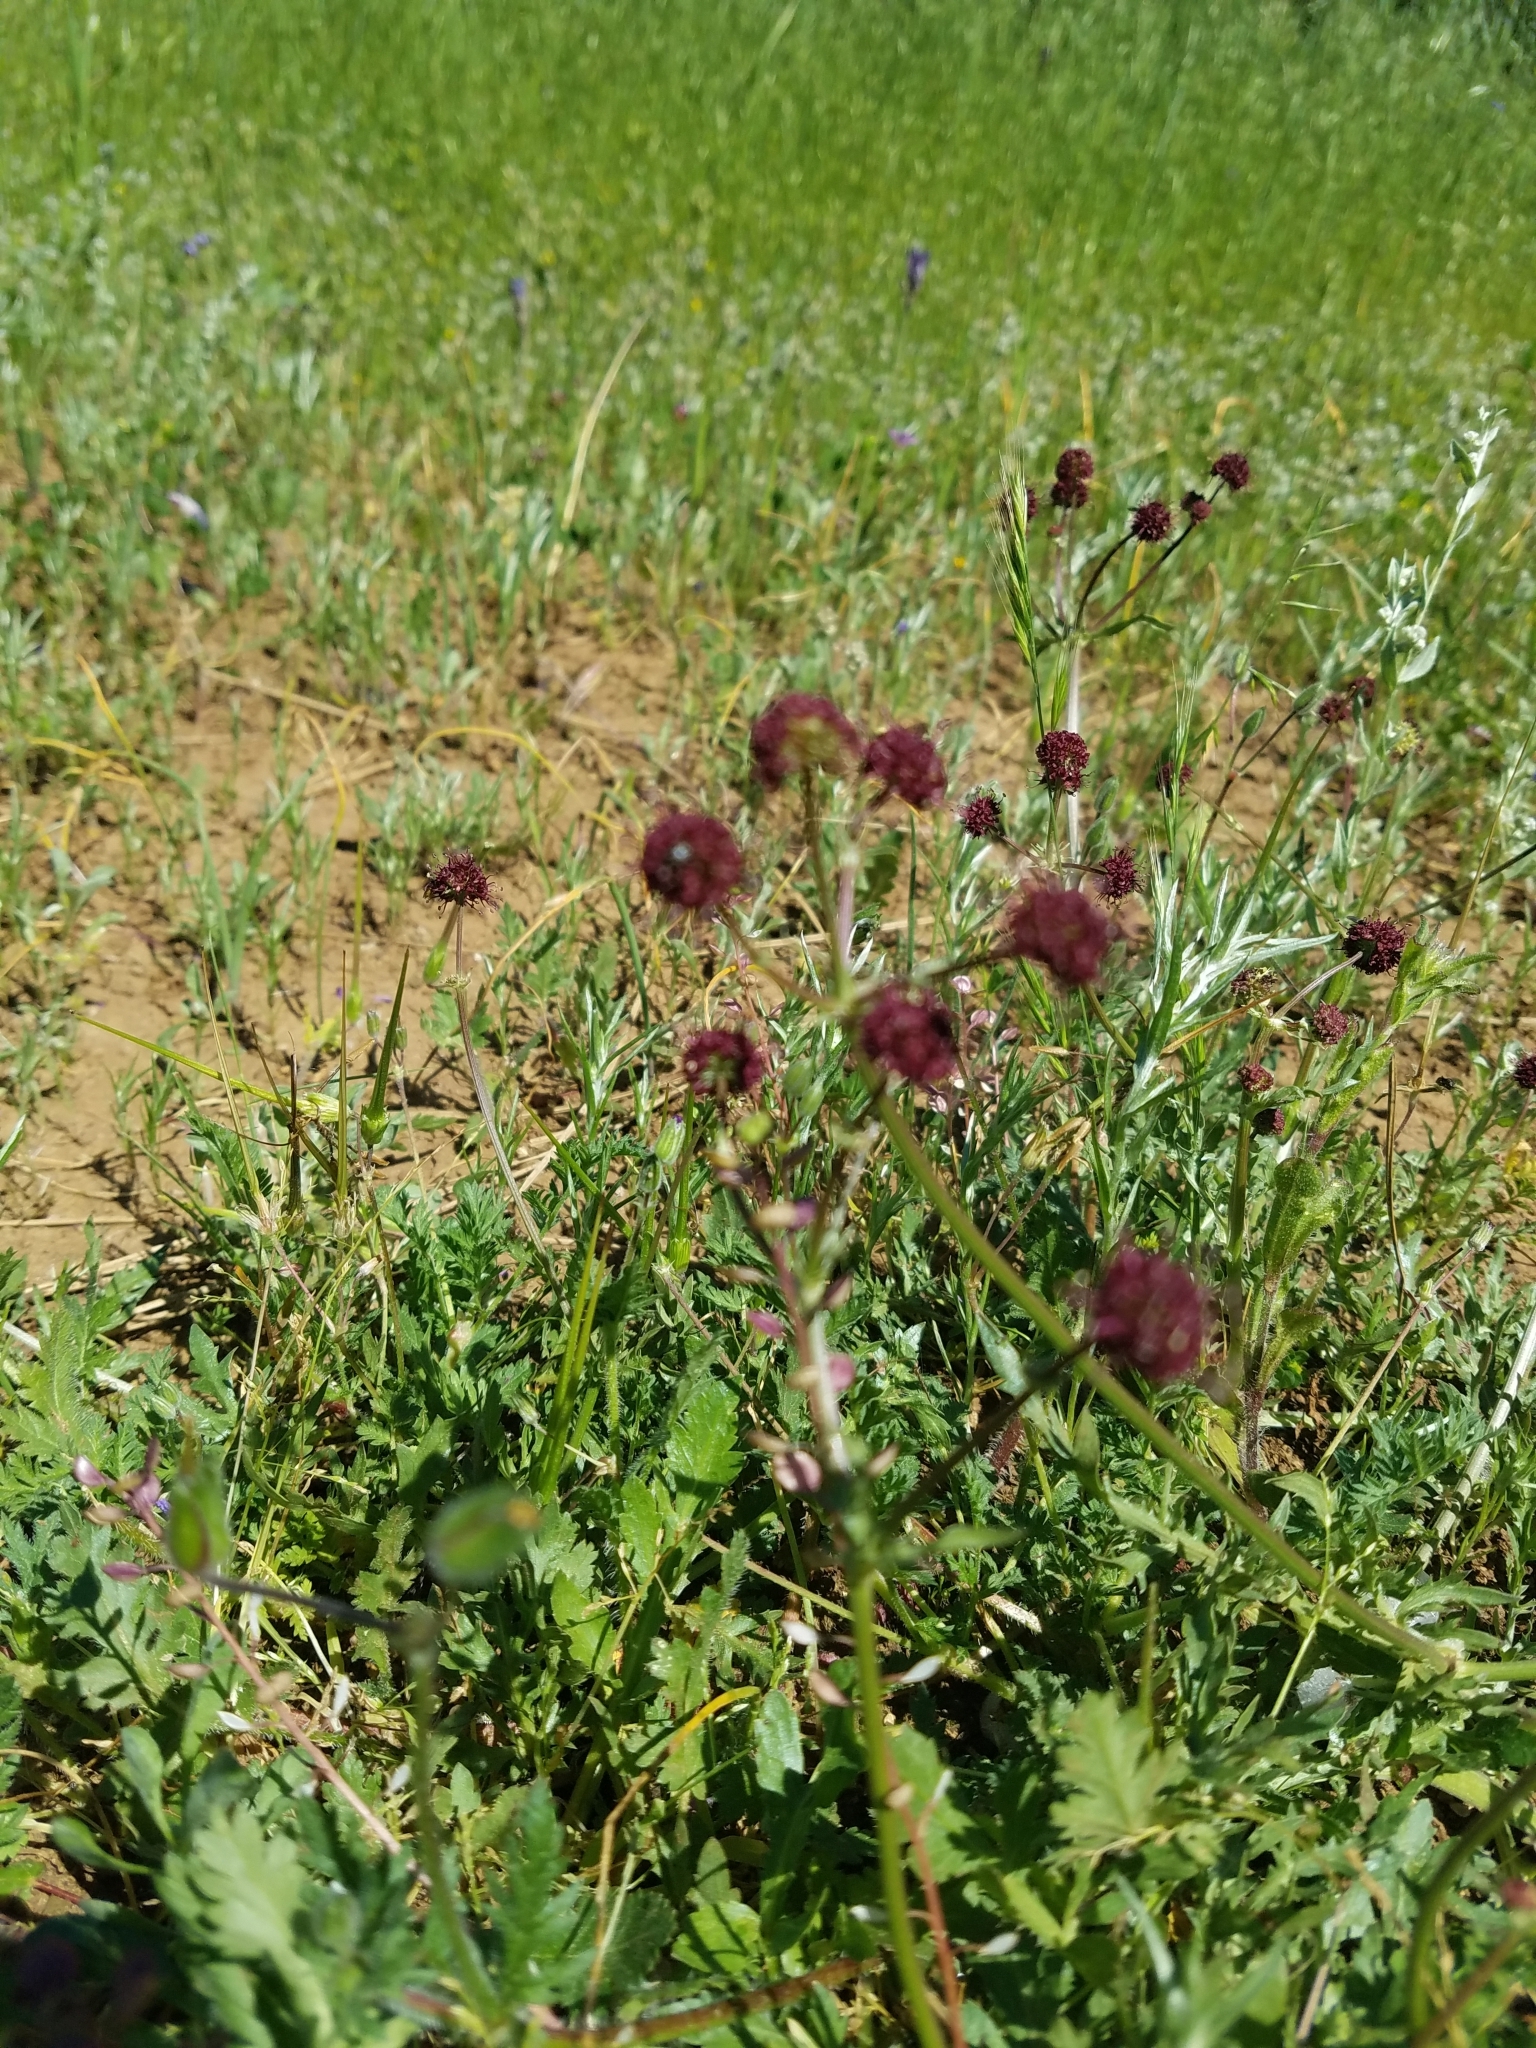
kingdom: Plantae
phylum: Tracheophyta
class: Magnoliopsida
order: Apiales
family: Apiaceae
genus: Sanicula
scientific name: Sanicula bipinnatifida
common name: Shoe-buttons
